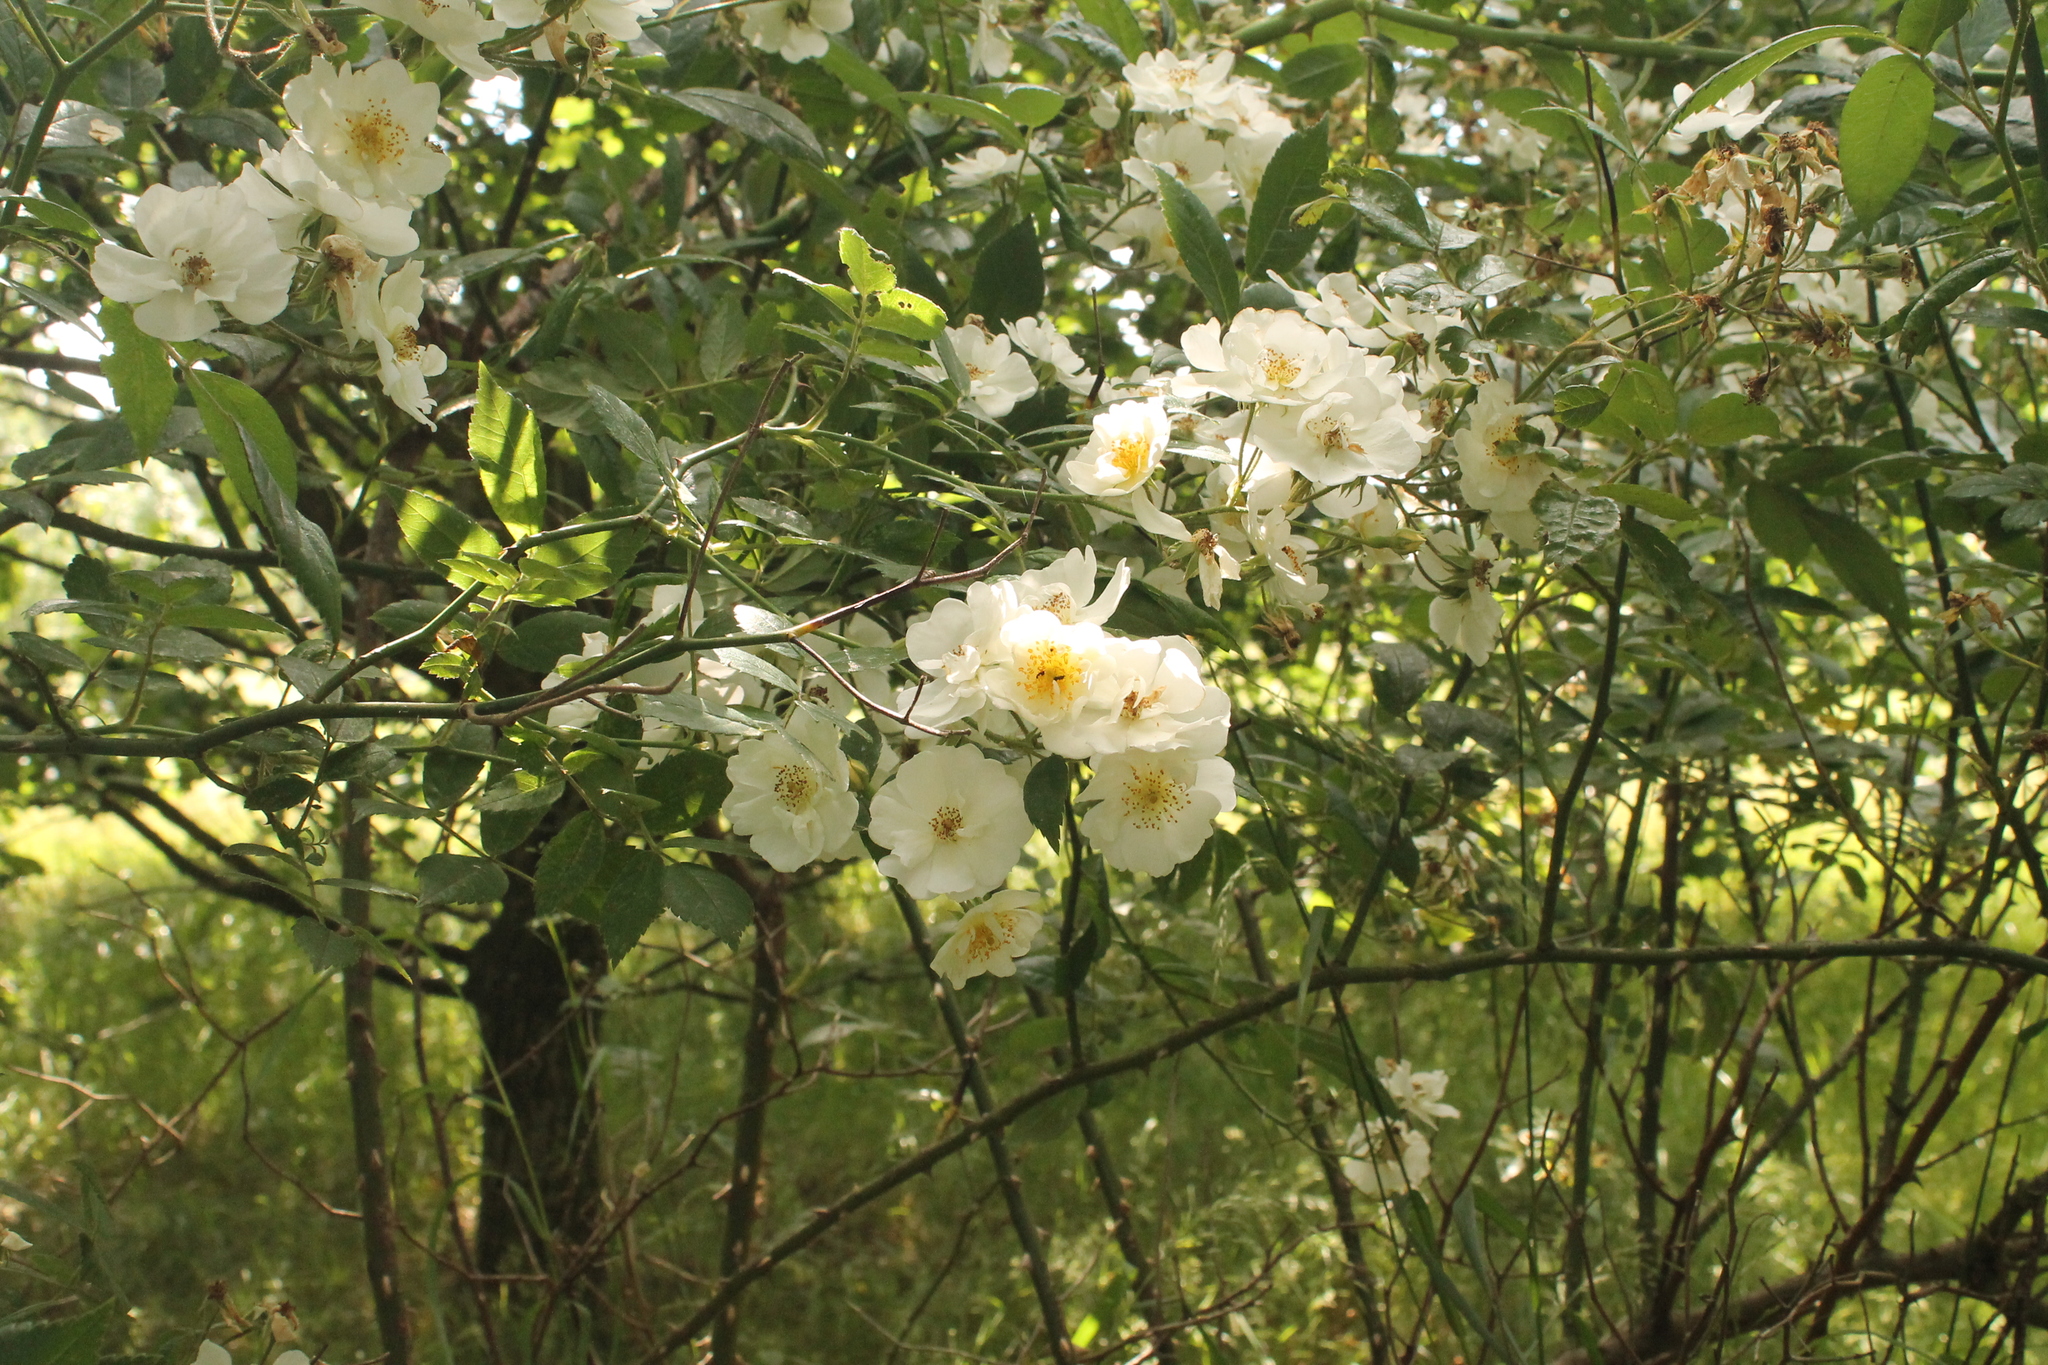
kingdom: Plantae
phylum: Tracheophyta
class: Magnoliopsida
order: Rosales
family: Rosaceae
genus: Rosa
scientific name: Rosa multiflora
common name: Multiflora rose
